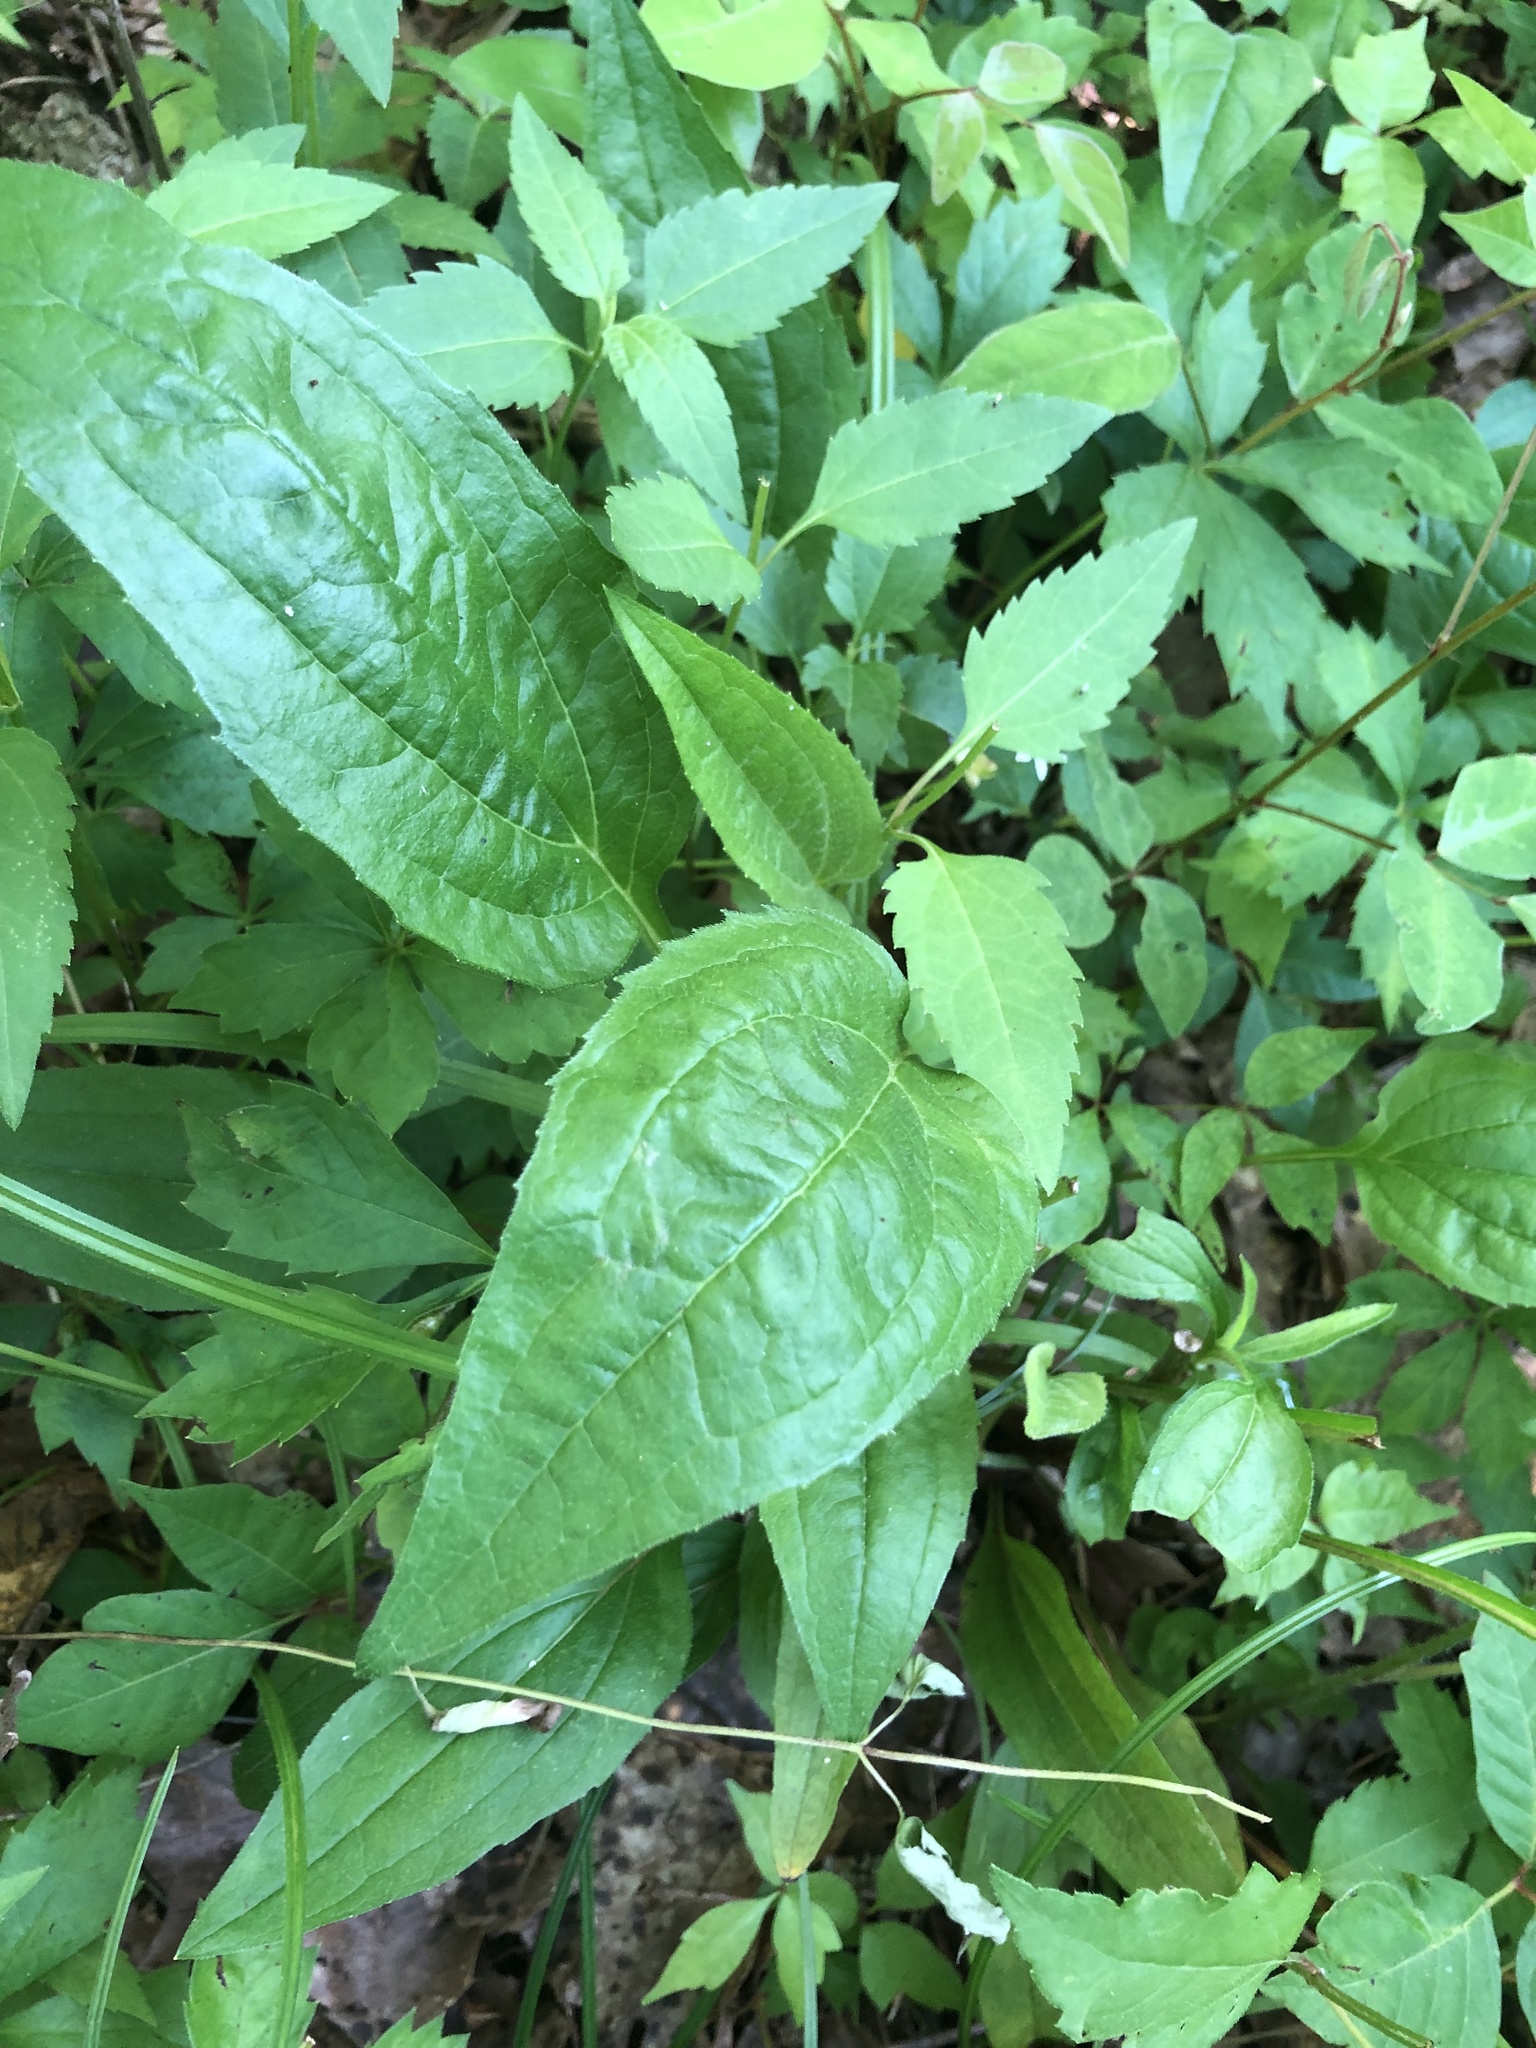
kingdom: Plantae
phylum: Tracheophyta
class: Magnoliopsida
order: Asterales
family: Asteraceae
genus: Echinacea
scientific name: Echinacea purpurea
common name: Broad-leaved purple coneflower
